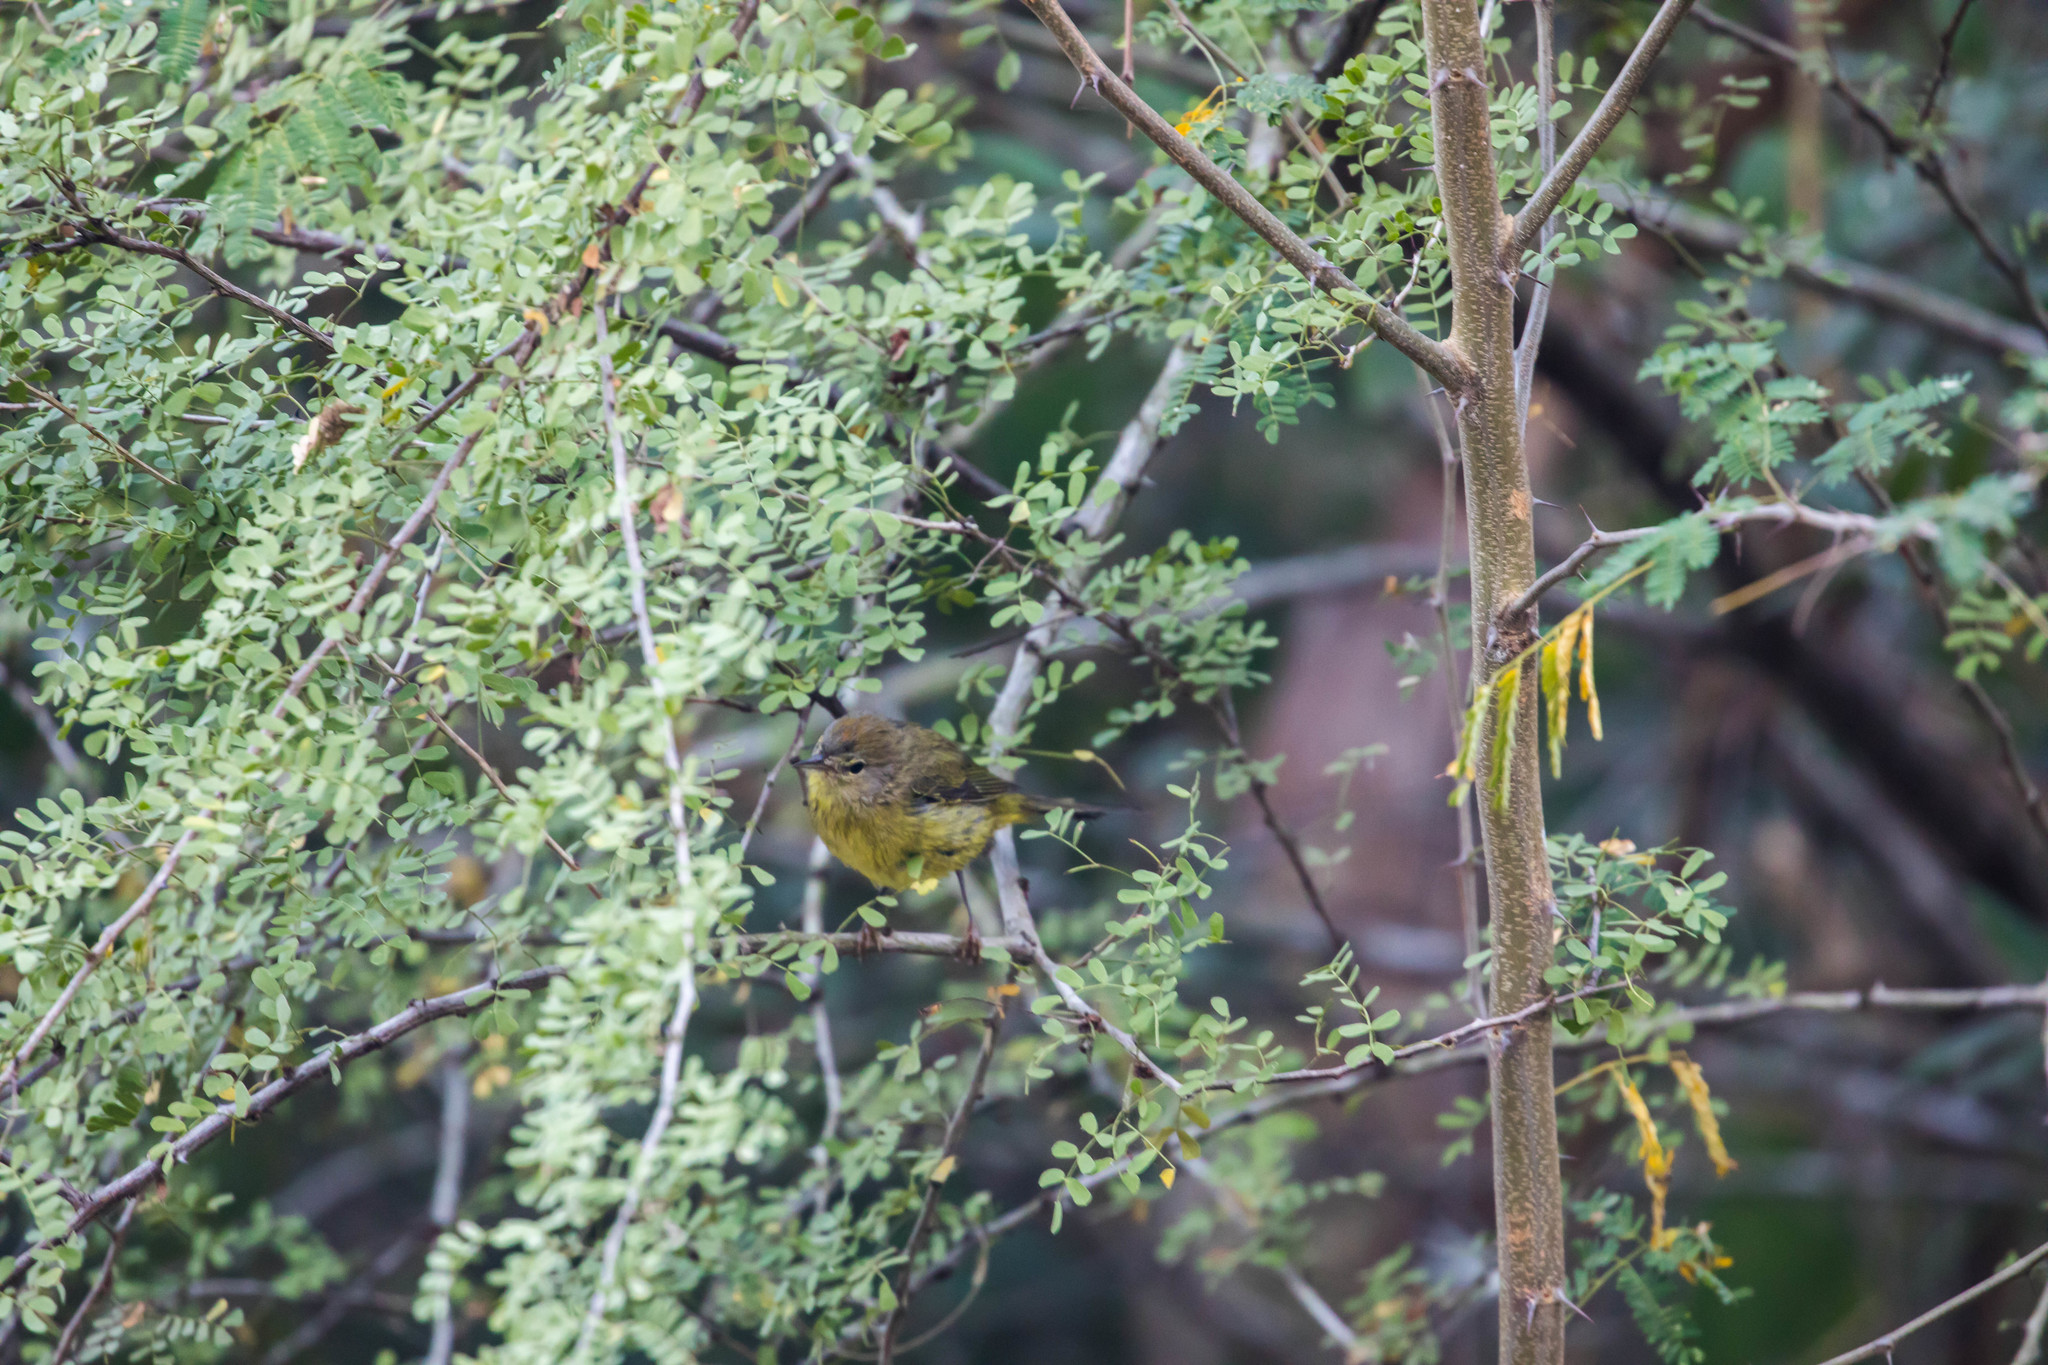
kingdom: Animalia
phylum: Chordata
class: Aves
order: Passeriformes
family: Parulidae
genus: Leiothlypis
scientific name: Leiothlypis celata
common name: Orange-crowned warbler
